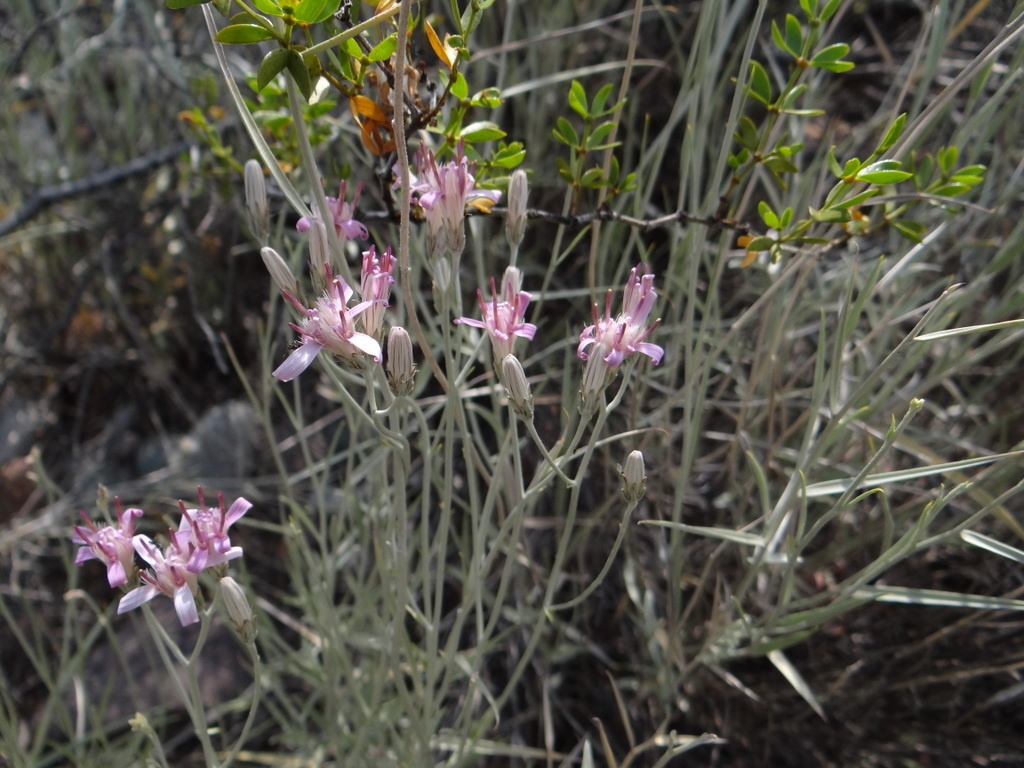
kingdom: Plantae
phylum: Tracheophyta
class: Magnoliopsida
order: Asterales
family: Asteraceae
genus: Hyalis
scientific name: Hyalis argentea
